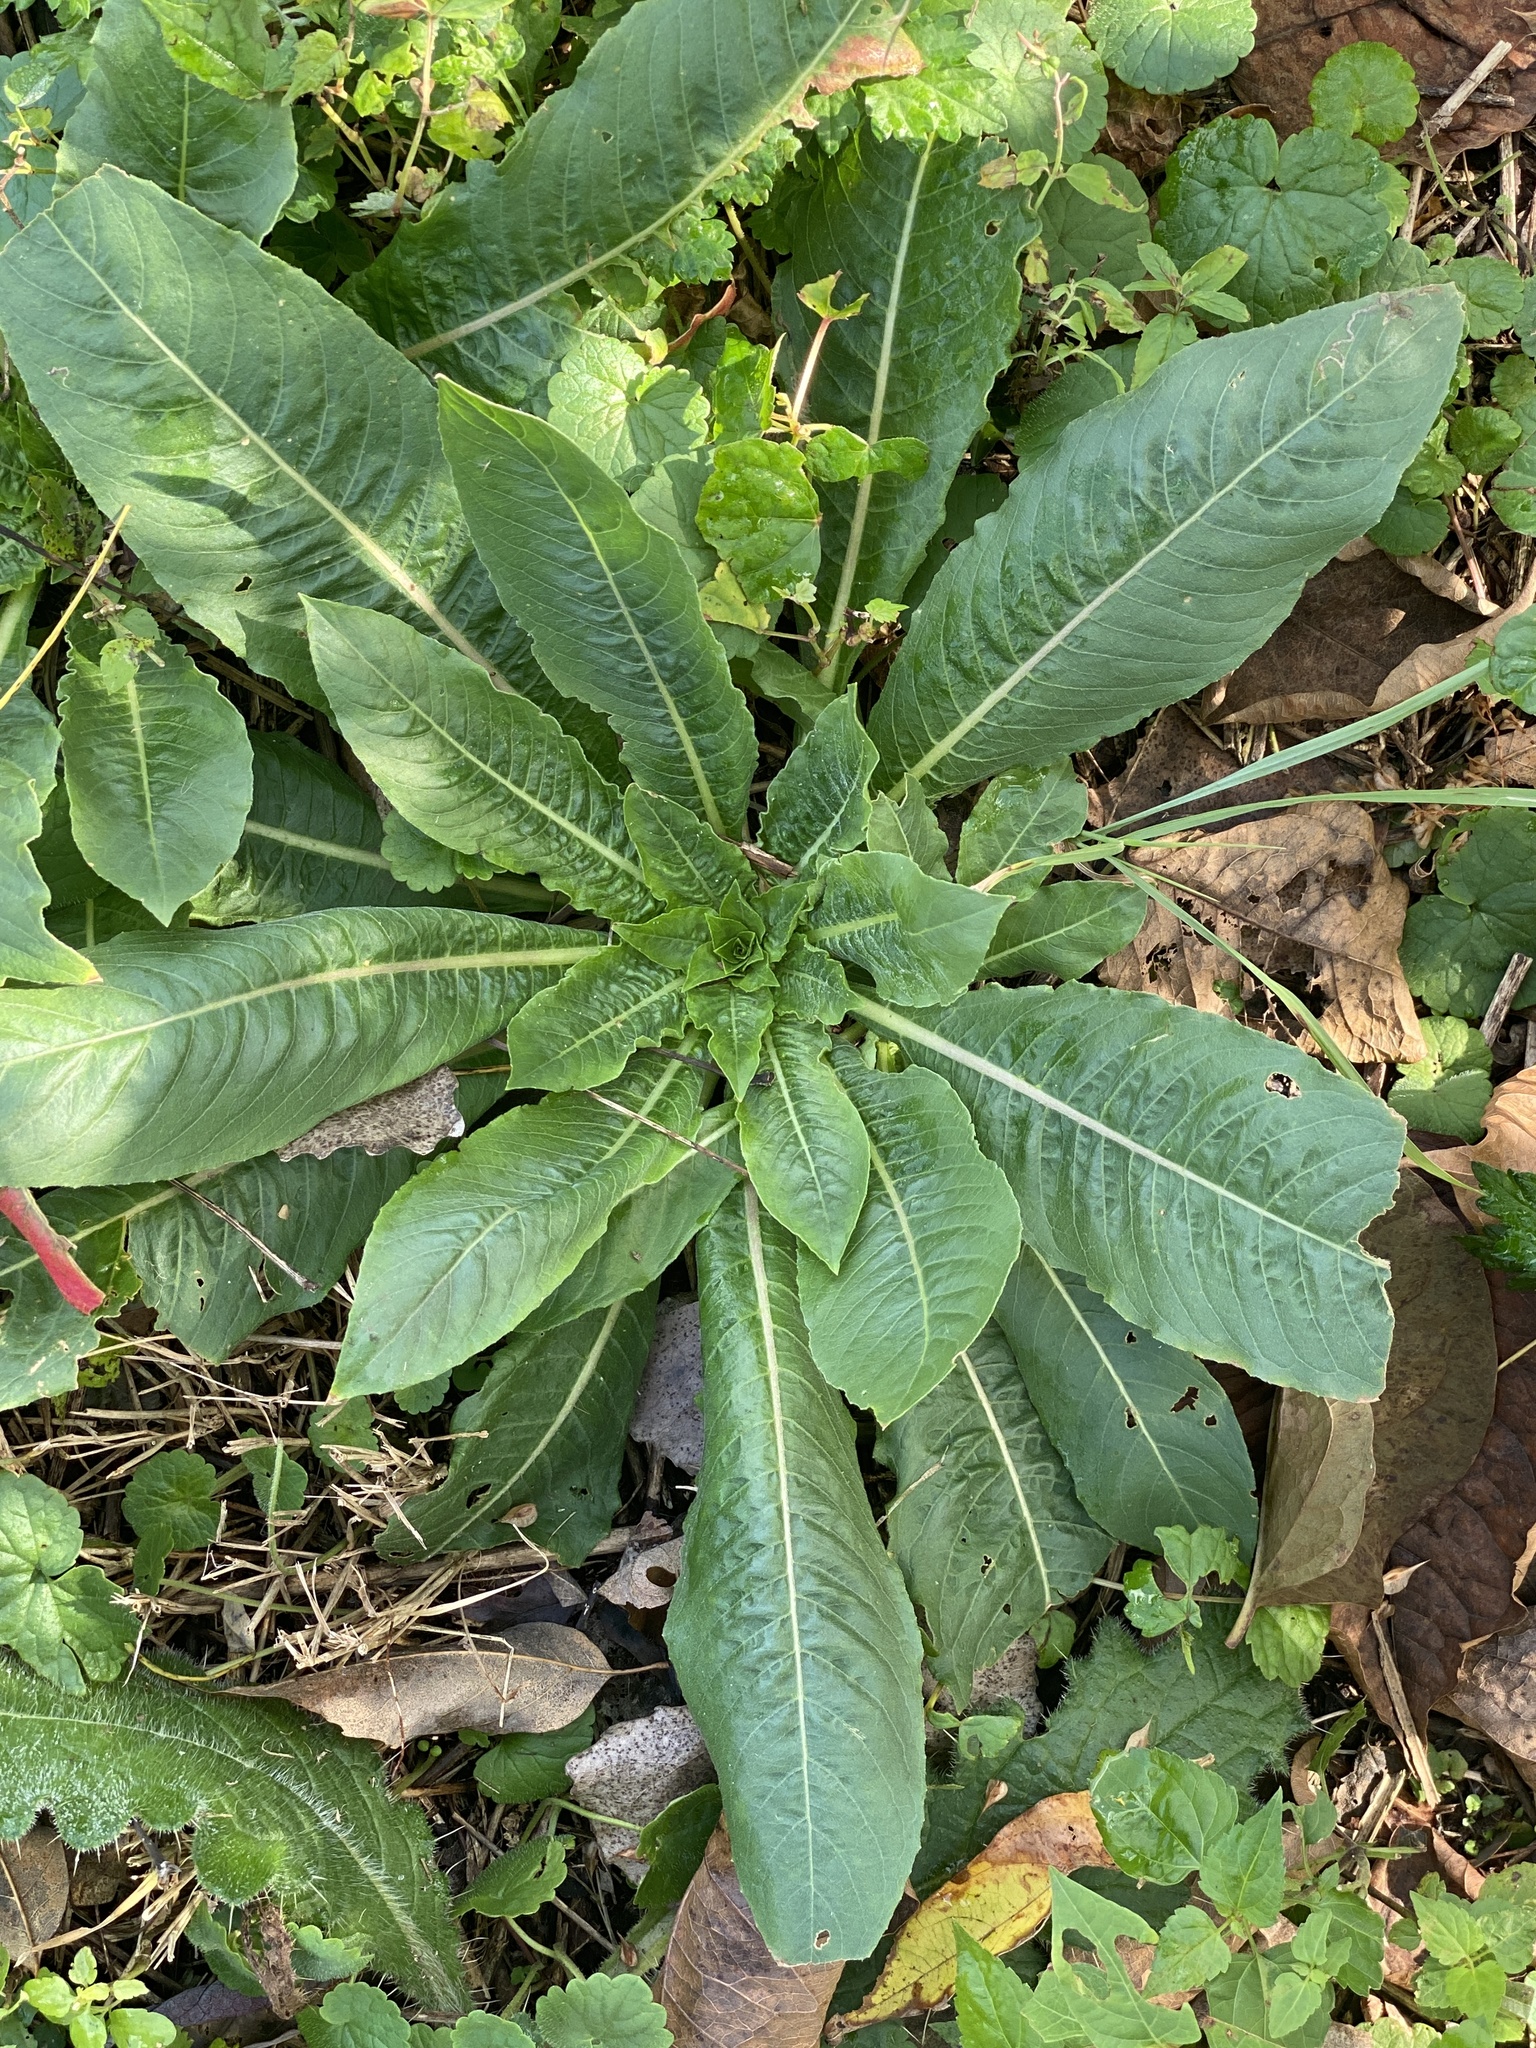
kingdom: Plantae
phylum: Tracheophyta
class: Magnoliopsida
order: Myrtales
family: Onagraceae
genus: Oenothera
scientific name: Oenothera biennis
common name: Common evening-primrose
